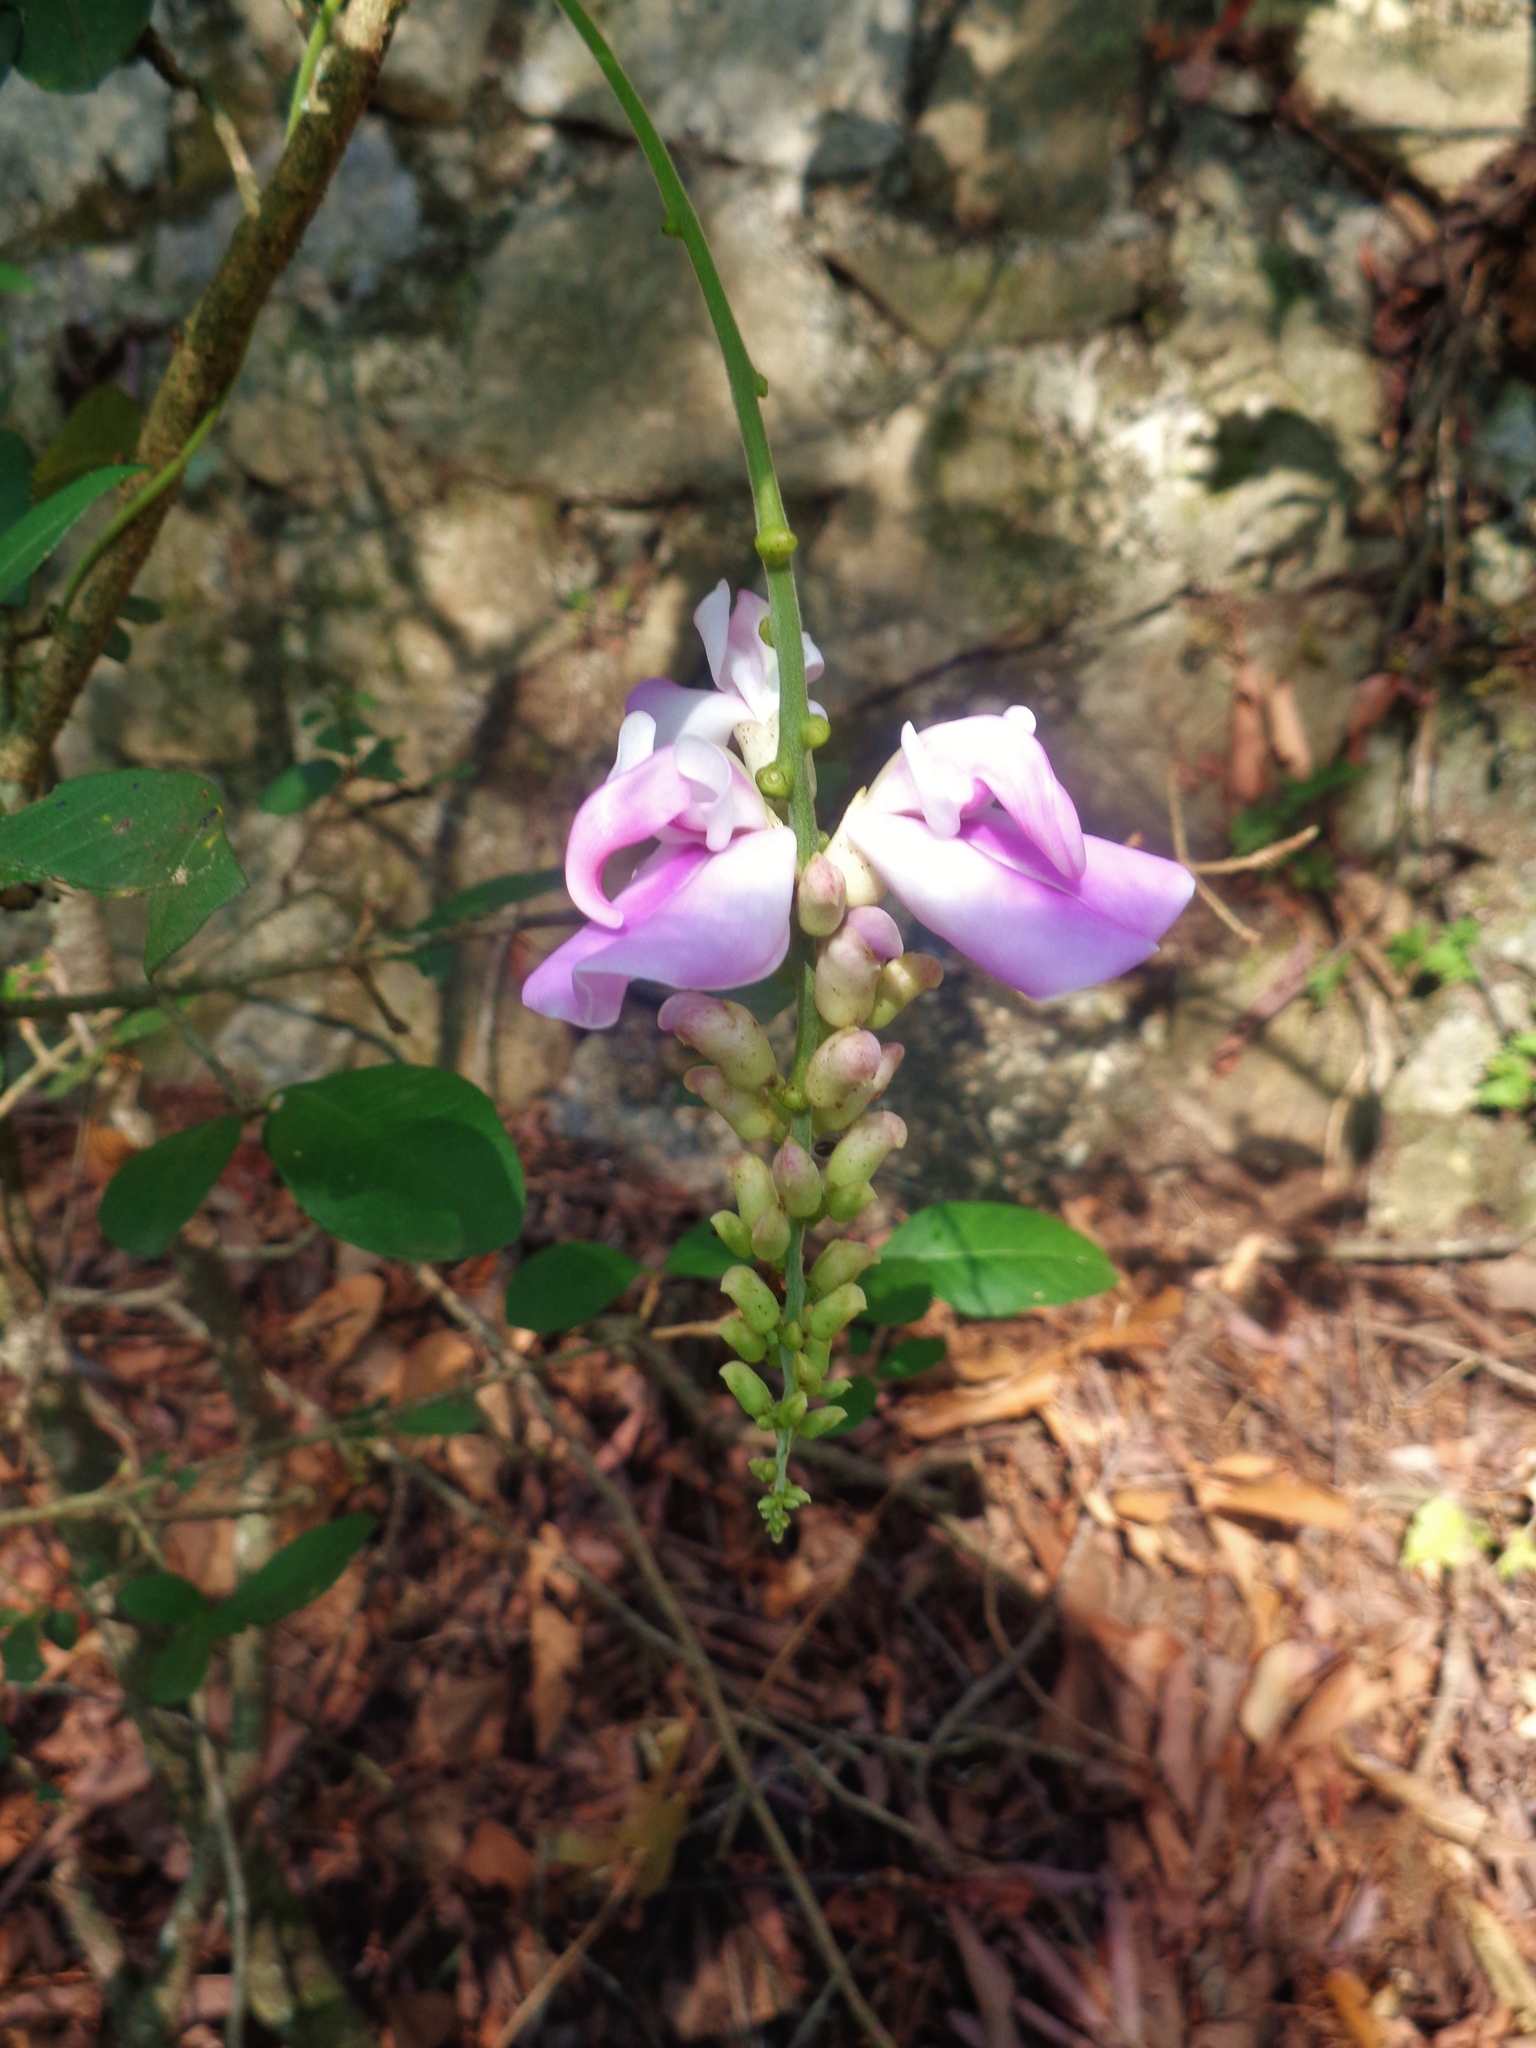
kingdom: Plantae
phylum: Tracheophyta
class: Magnoliopsida
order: Fabales
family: Fabaceae
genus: Canavalia
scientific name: Canavalia septentrionalis
